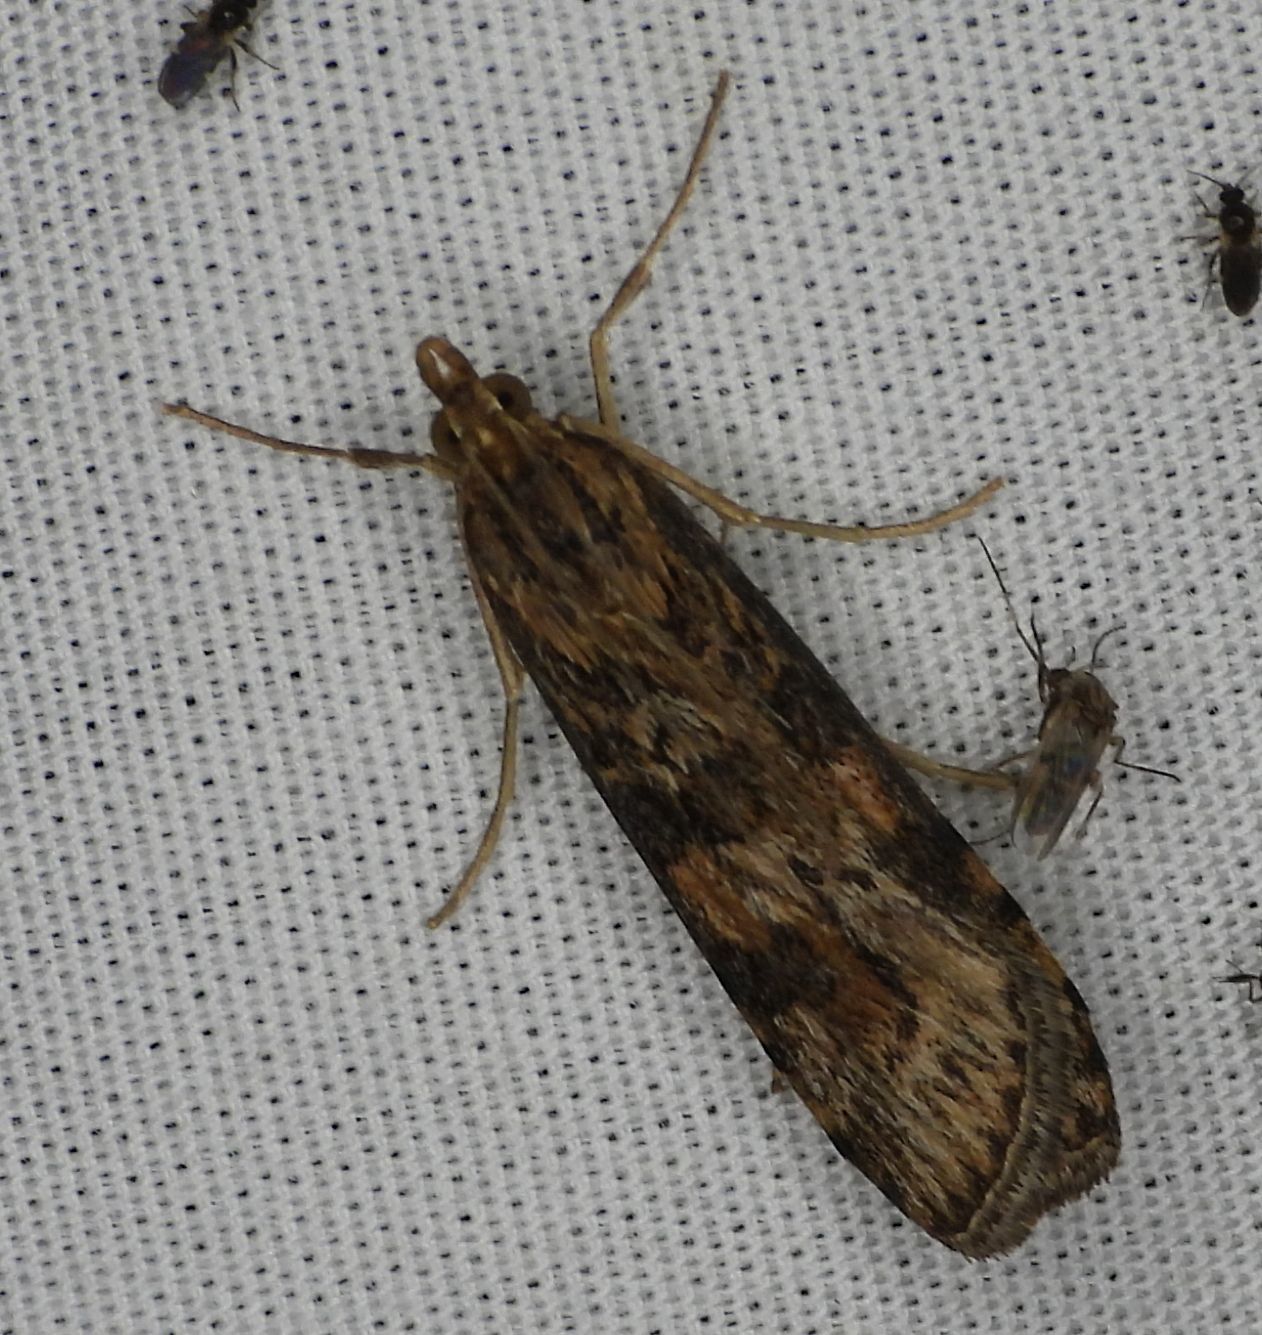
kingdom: Animalia
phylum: Arthropoda
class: Insecta
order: Lepidoptera
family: Crambidae
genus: Nomophila
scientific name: Nomophila nearctica
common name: American rush veneer
